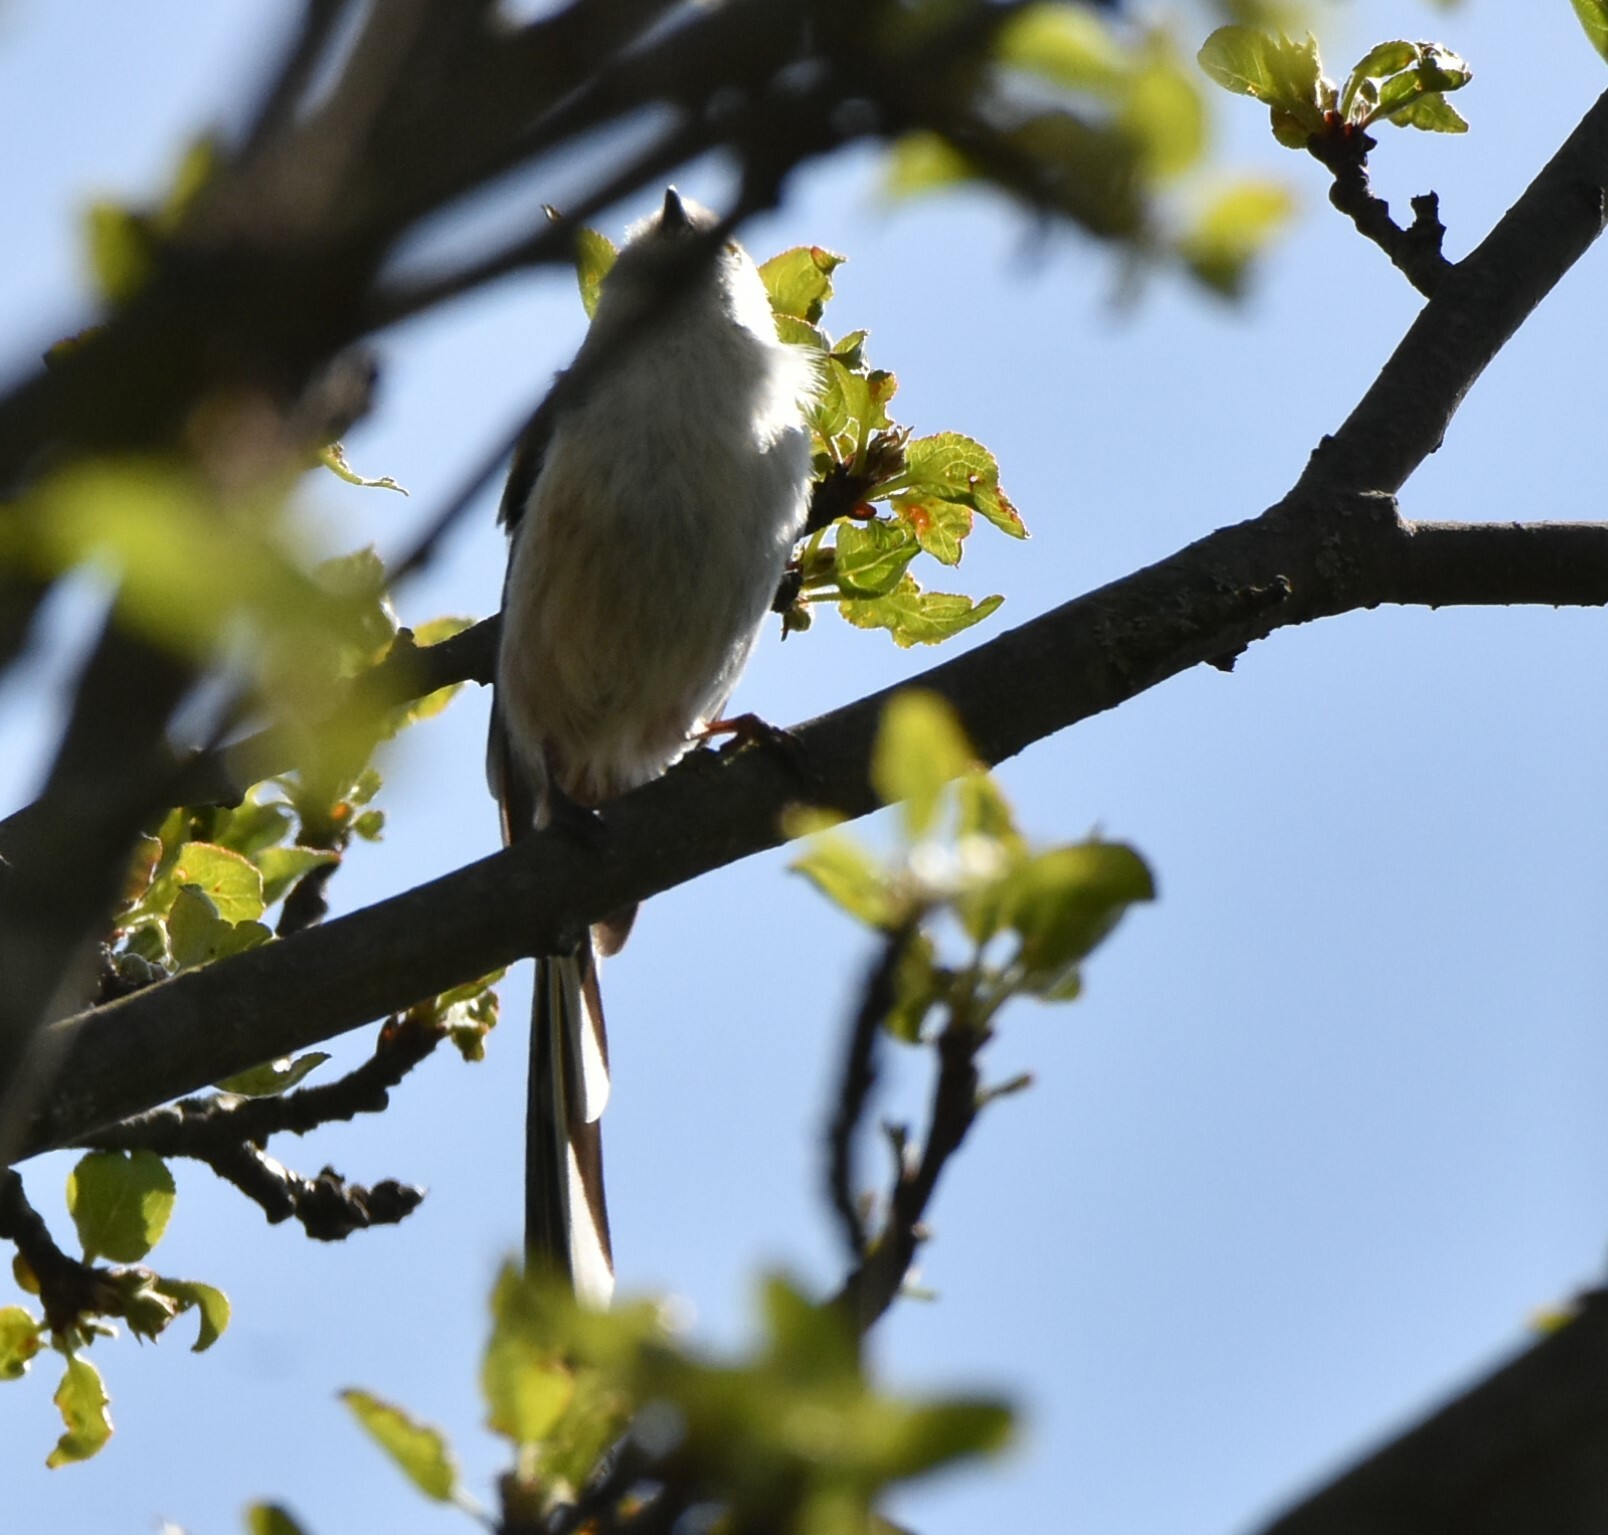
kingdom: Animalia
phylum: Chordata
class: Aves
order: Passeriformes
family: Aegithalidae
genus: Aegithalos
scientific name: Aegithalos caudatus
